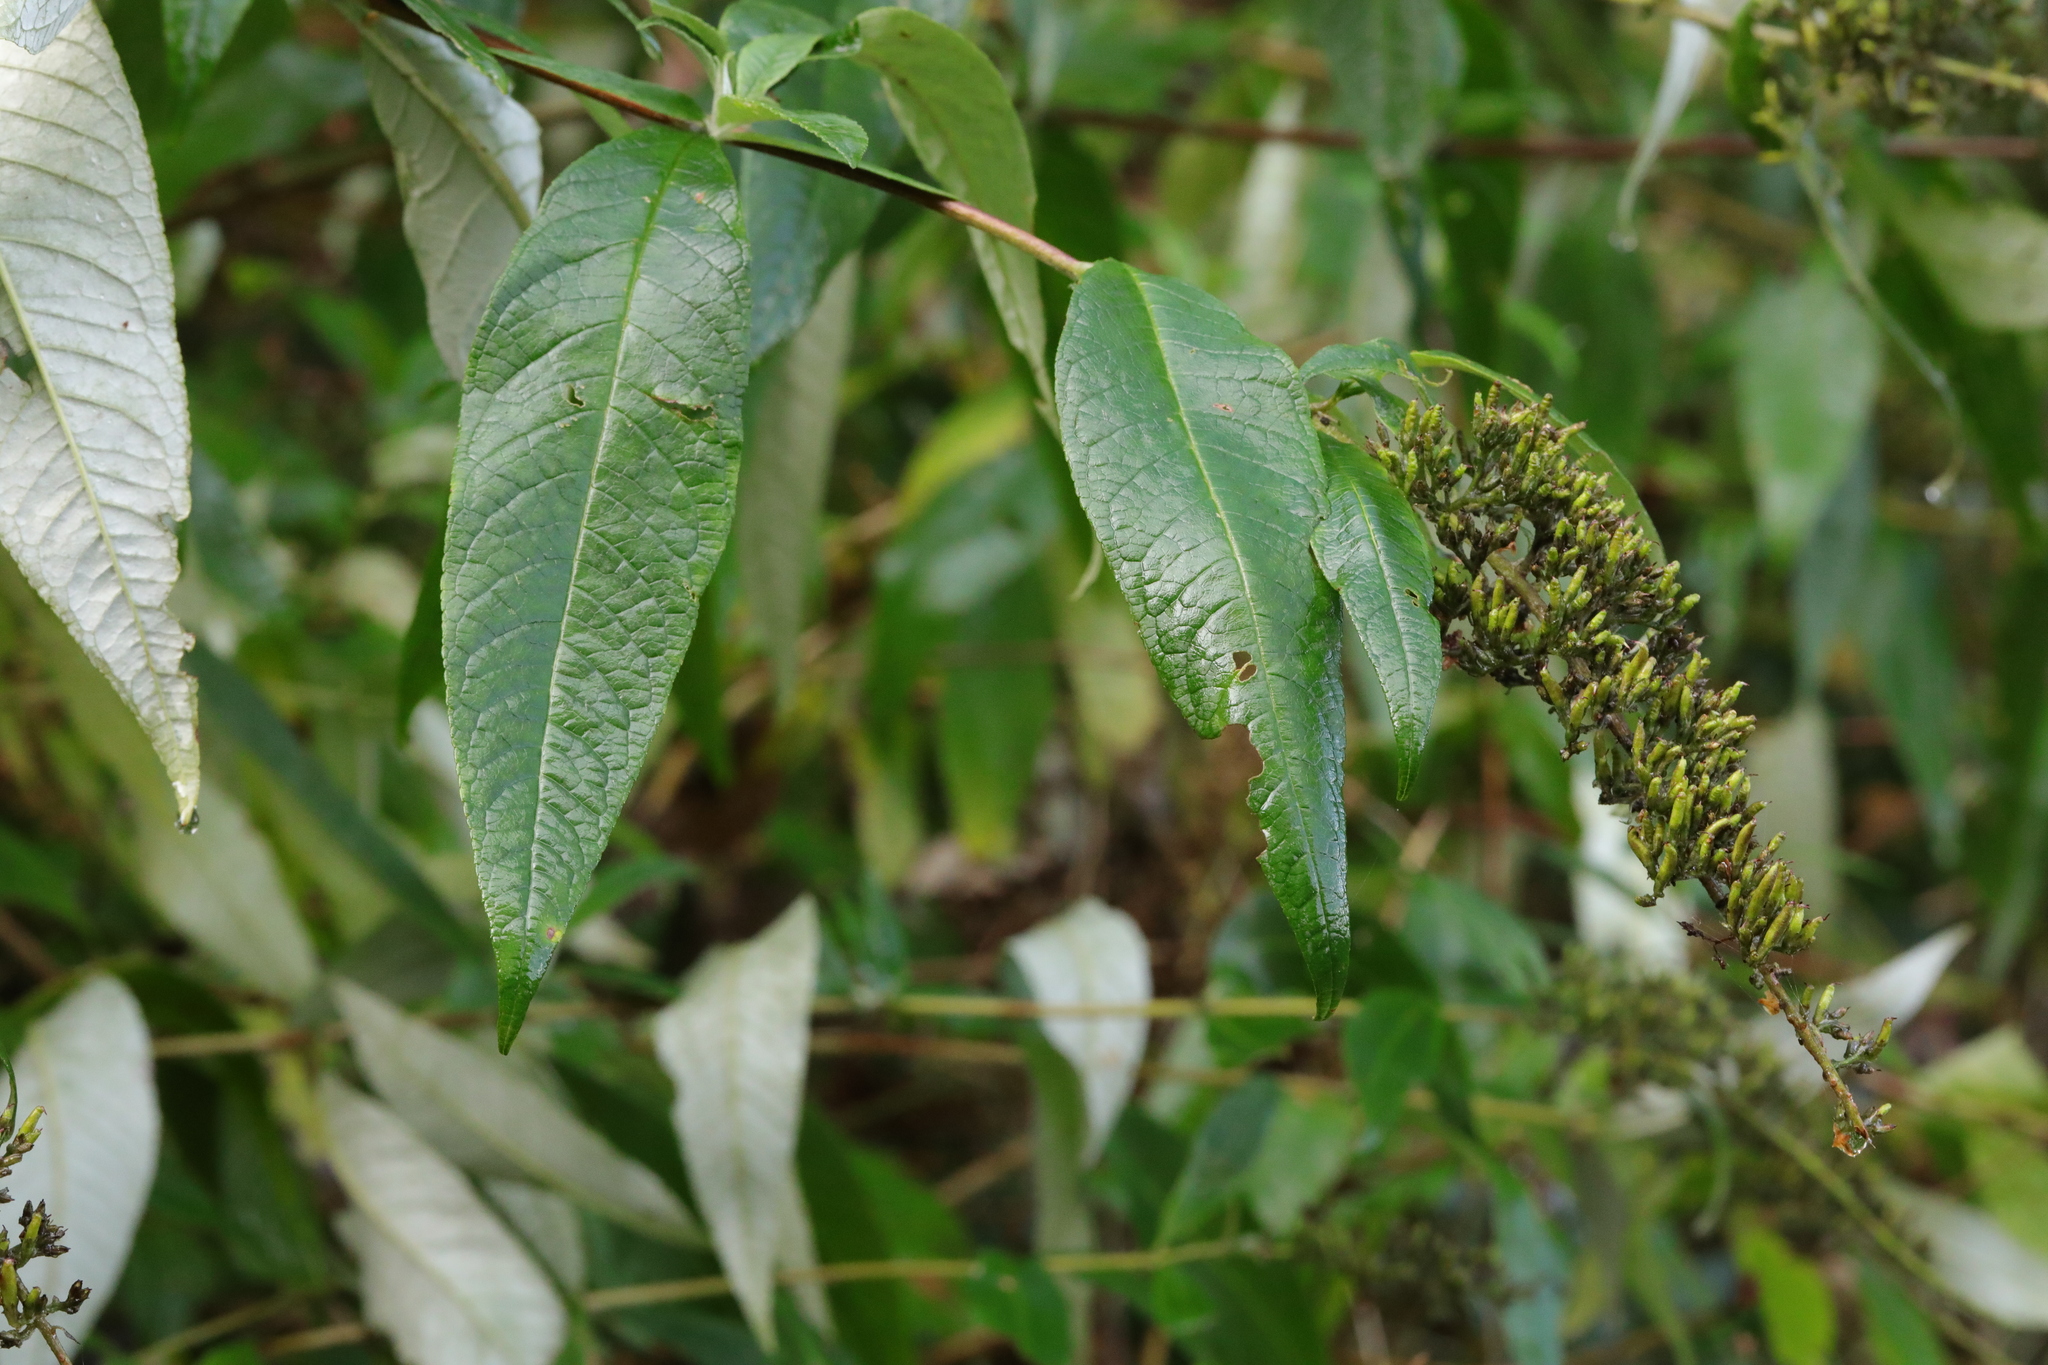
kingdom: Plantae
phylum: Tracheophyta
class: Magnoliopsida
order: Lamiales
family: Scrophulariaceae
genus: Buddleja
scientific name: Buddleja davidii
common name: Butterfly-bush
